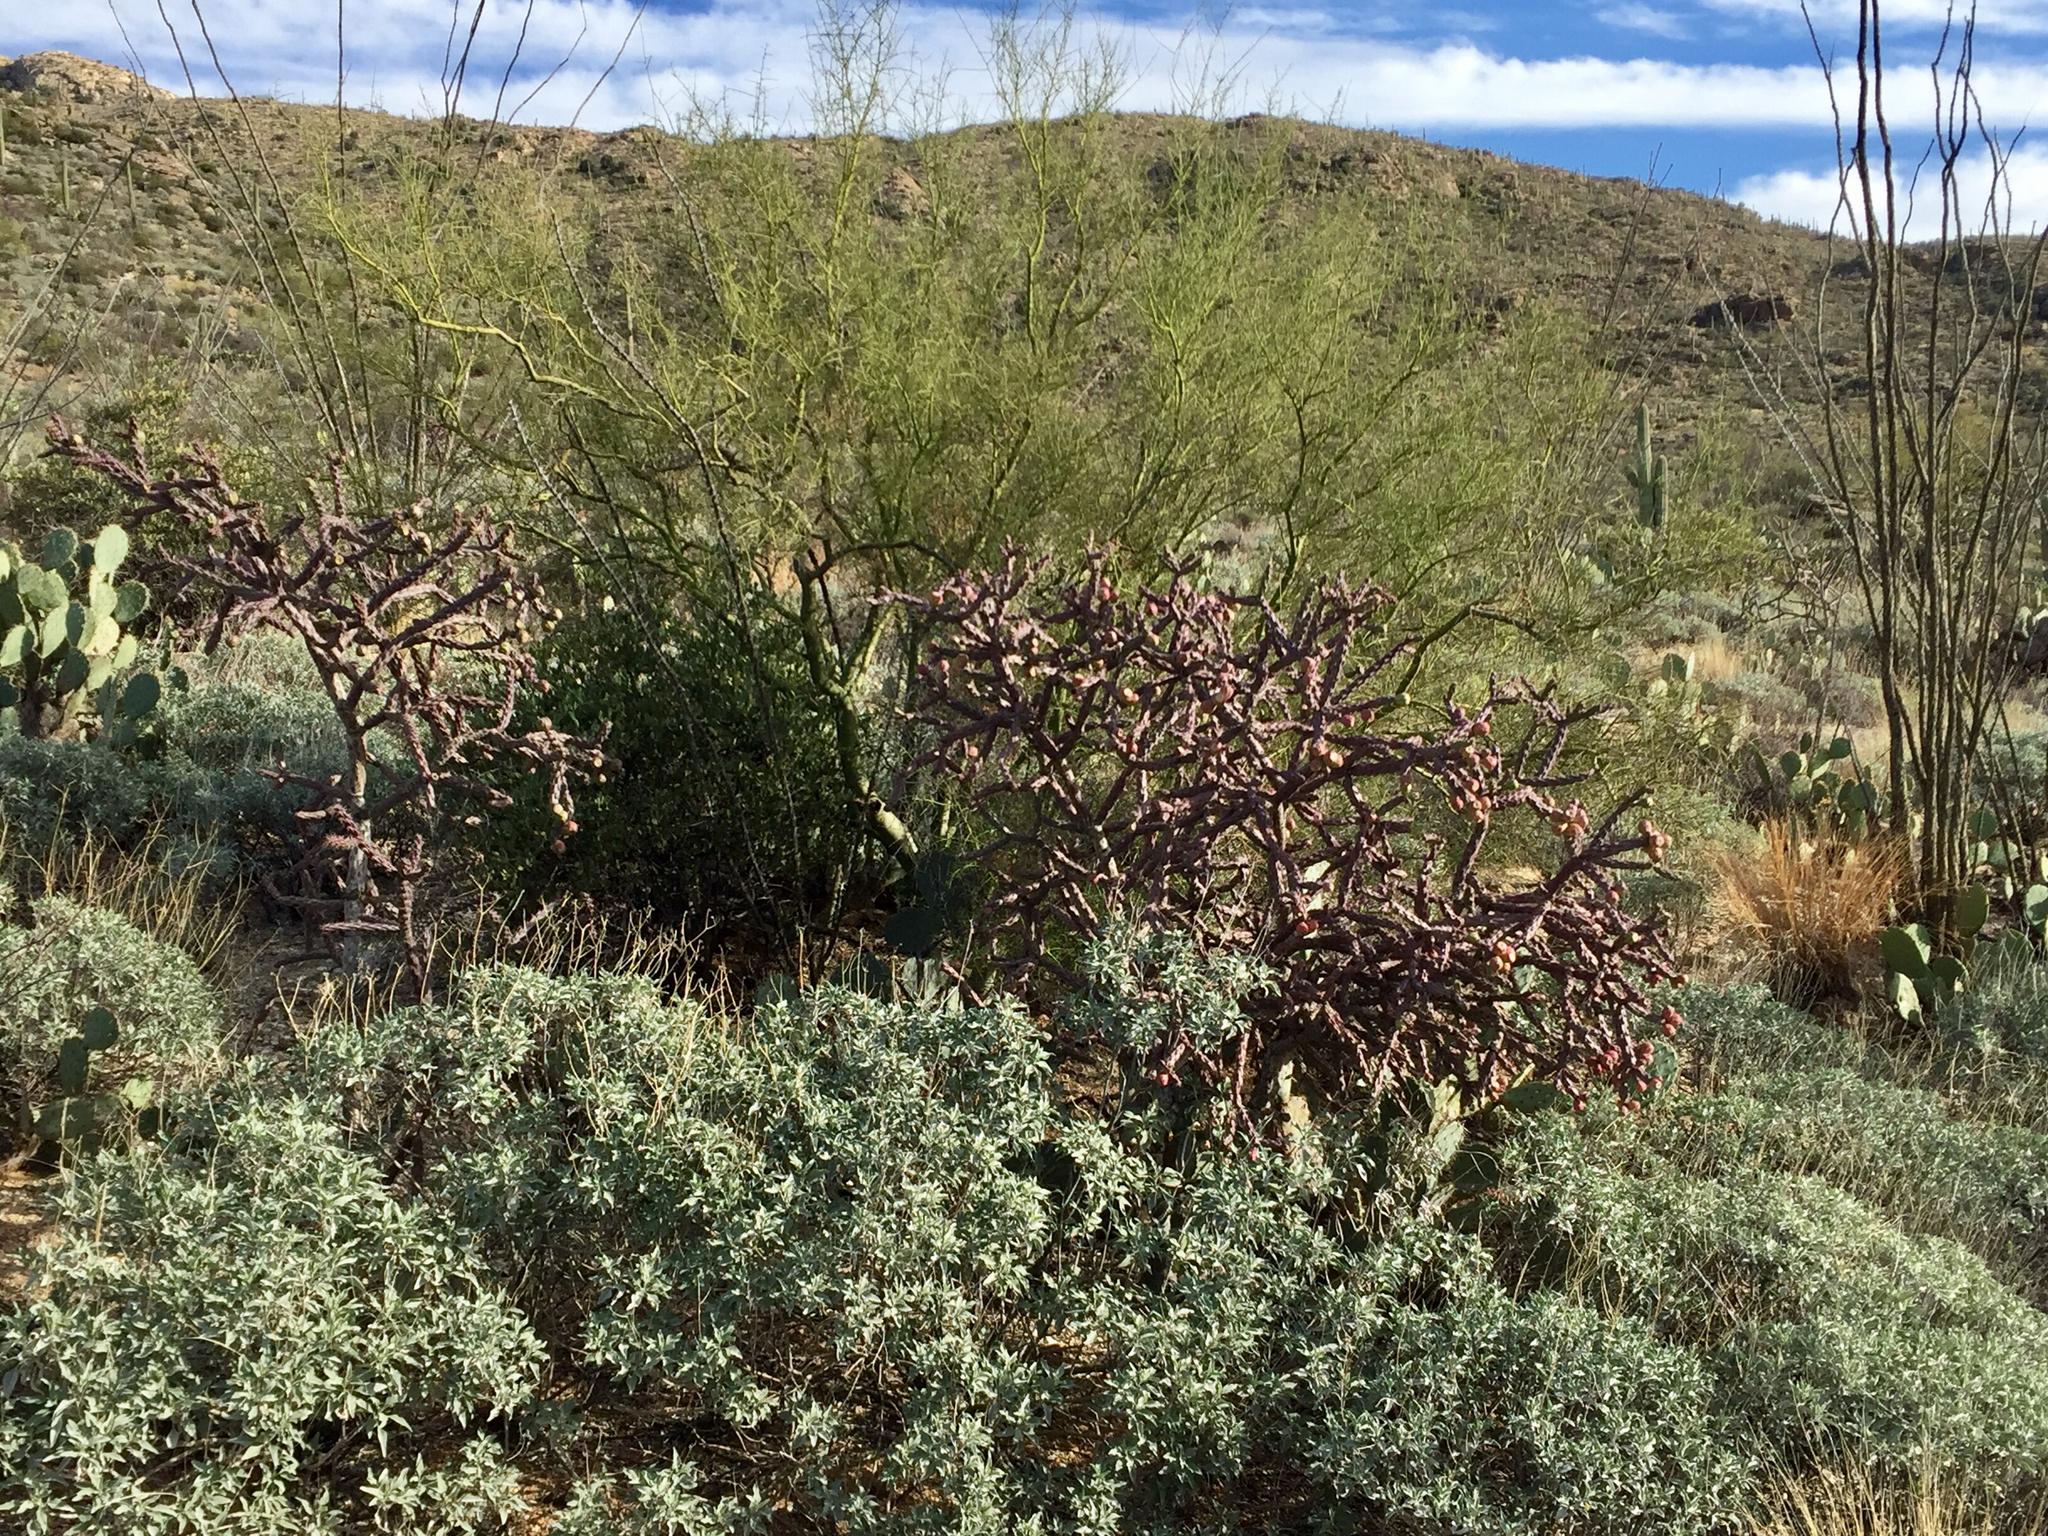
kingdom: Plantae
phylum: Tracheophyta
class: Magnoliopsida
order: Caryophyllales
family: Cactaceae
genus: Cylindropuntia
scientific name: Cylindropuntia thurberi
